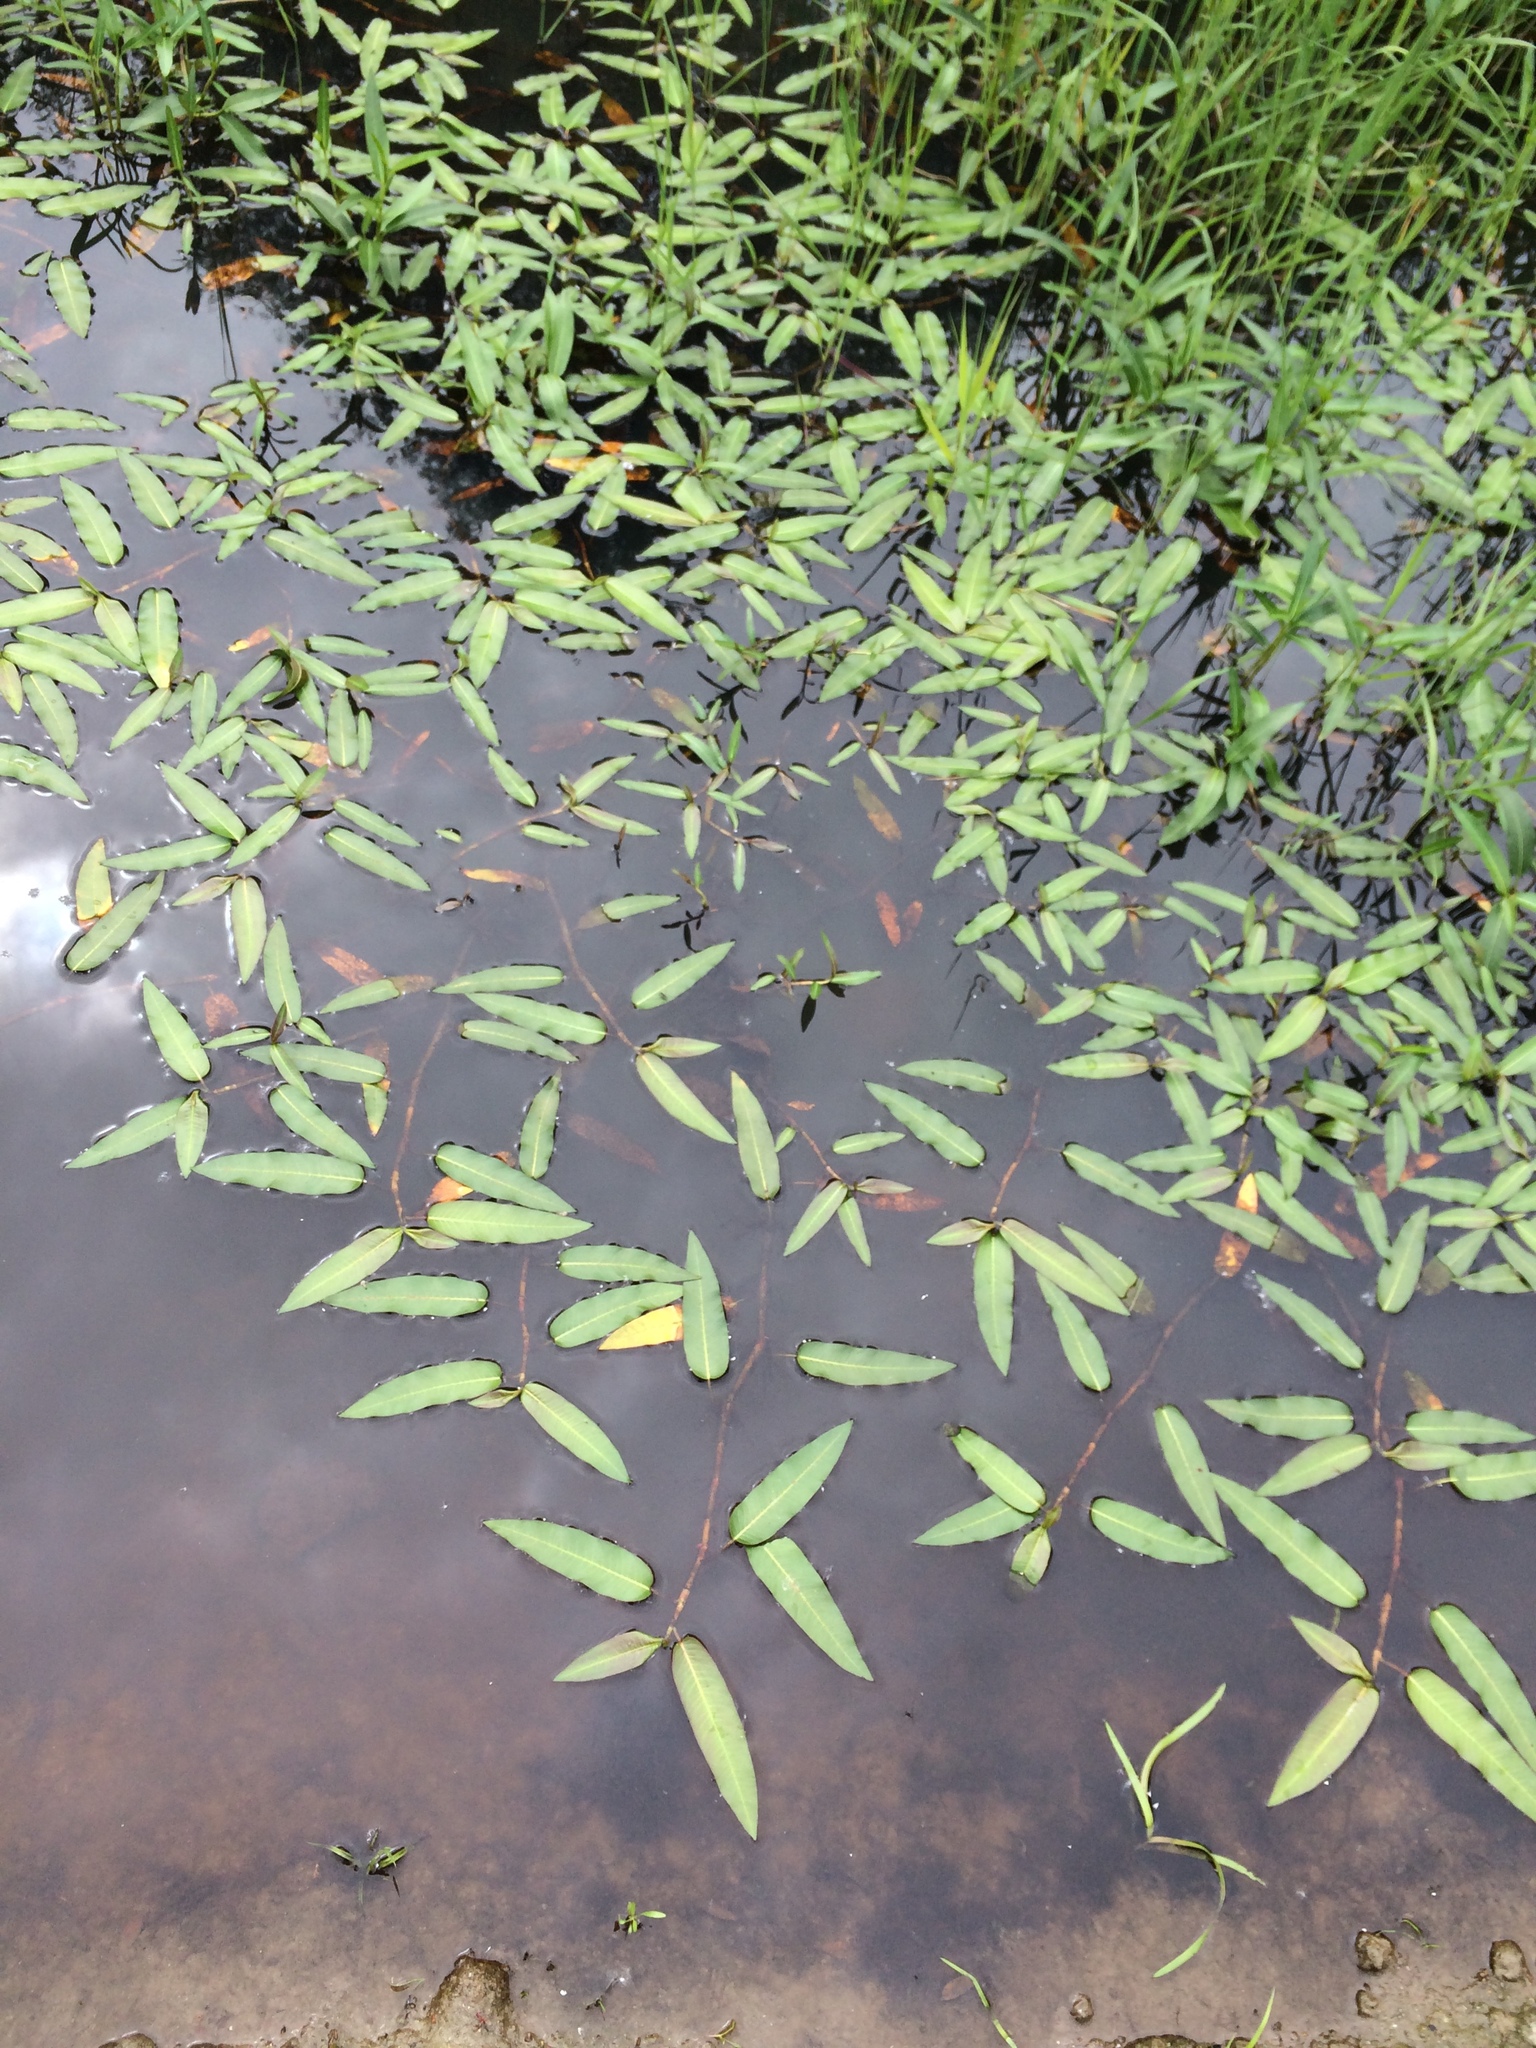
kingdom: Plantae
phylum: Tracheophyta
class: Magnoliopsida
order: Caryophyllales
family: Polygonaceae
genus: Persicaria
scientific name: Persicaria amphibia
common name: Amphibious bistort
